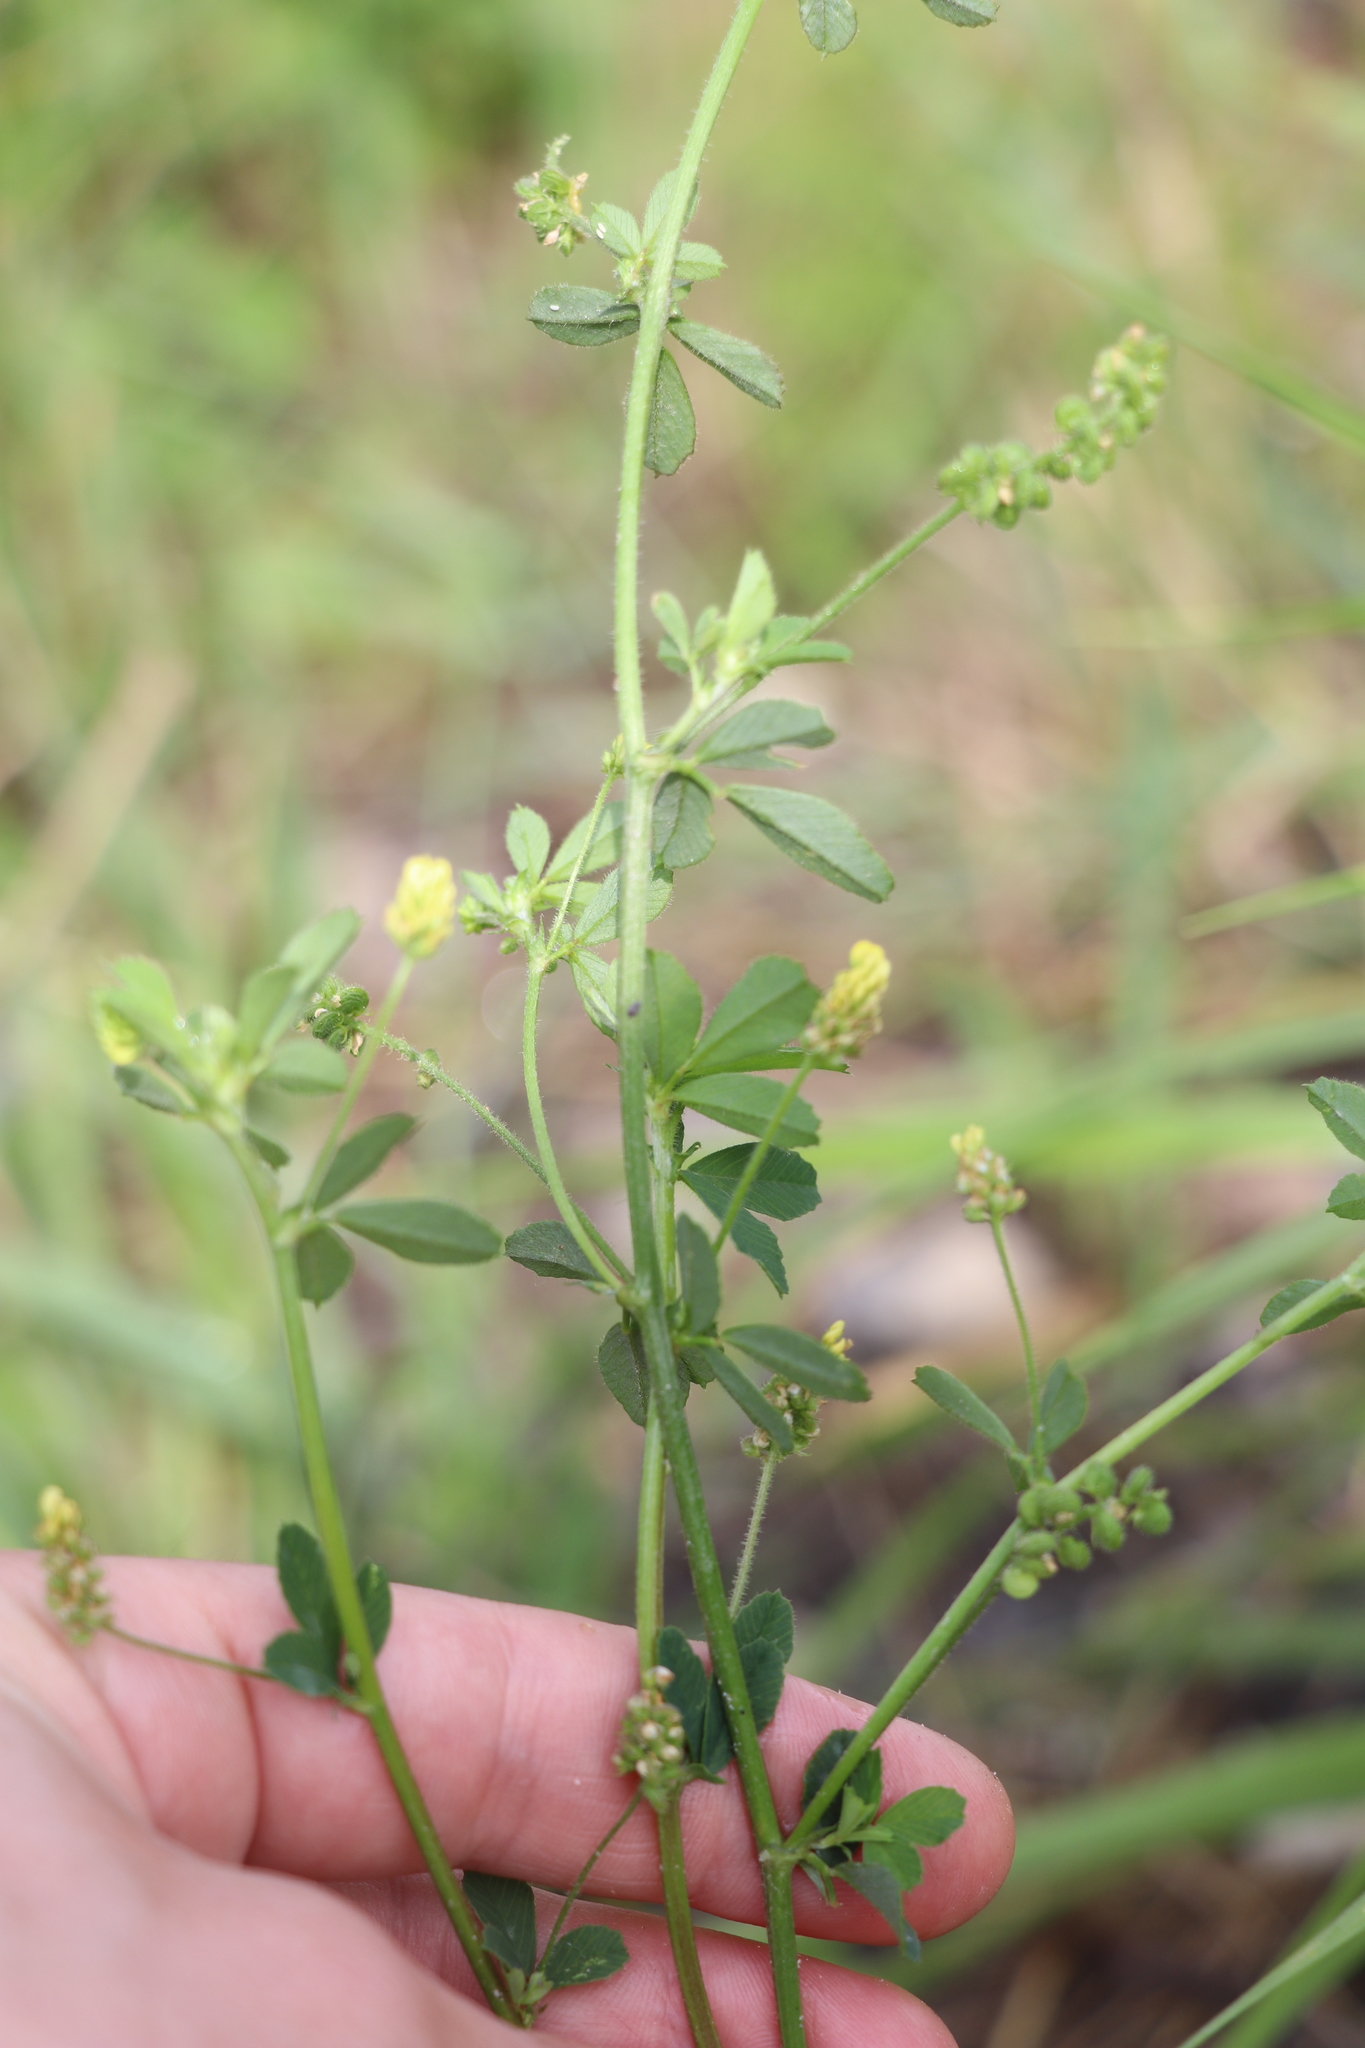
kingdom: Plantae
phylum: Tracheophyta
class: Magnoliopsida
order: Fabales
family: Fabaceae
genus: Medicago
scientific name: Medicago lupulina
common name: Black medick
